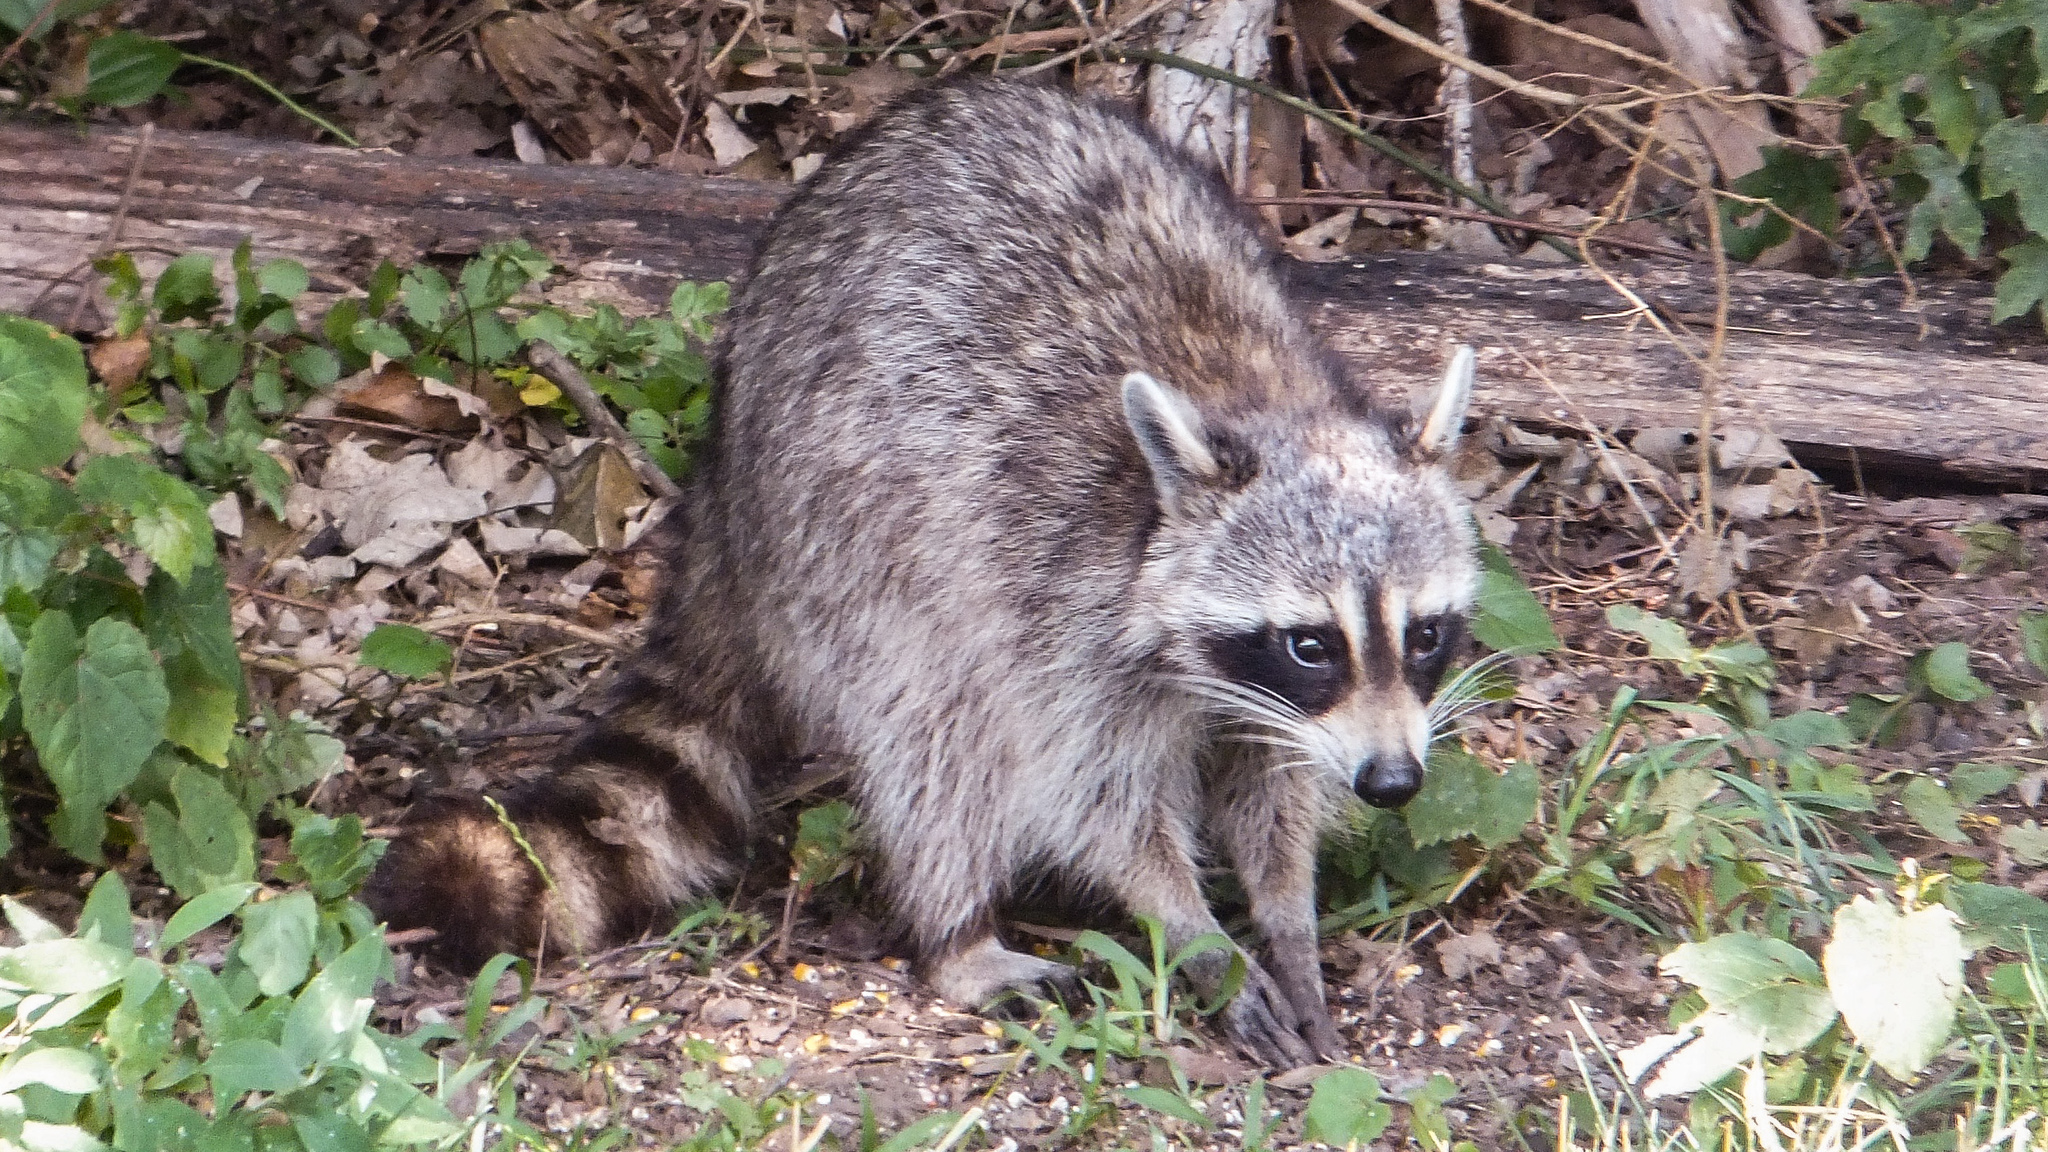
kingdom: Animalia
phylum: Chordata
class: Mammalia
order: Carnivora
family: Procyonidae
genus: Procyon
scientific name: Procyon lotor
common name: Raccoon
